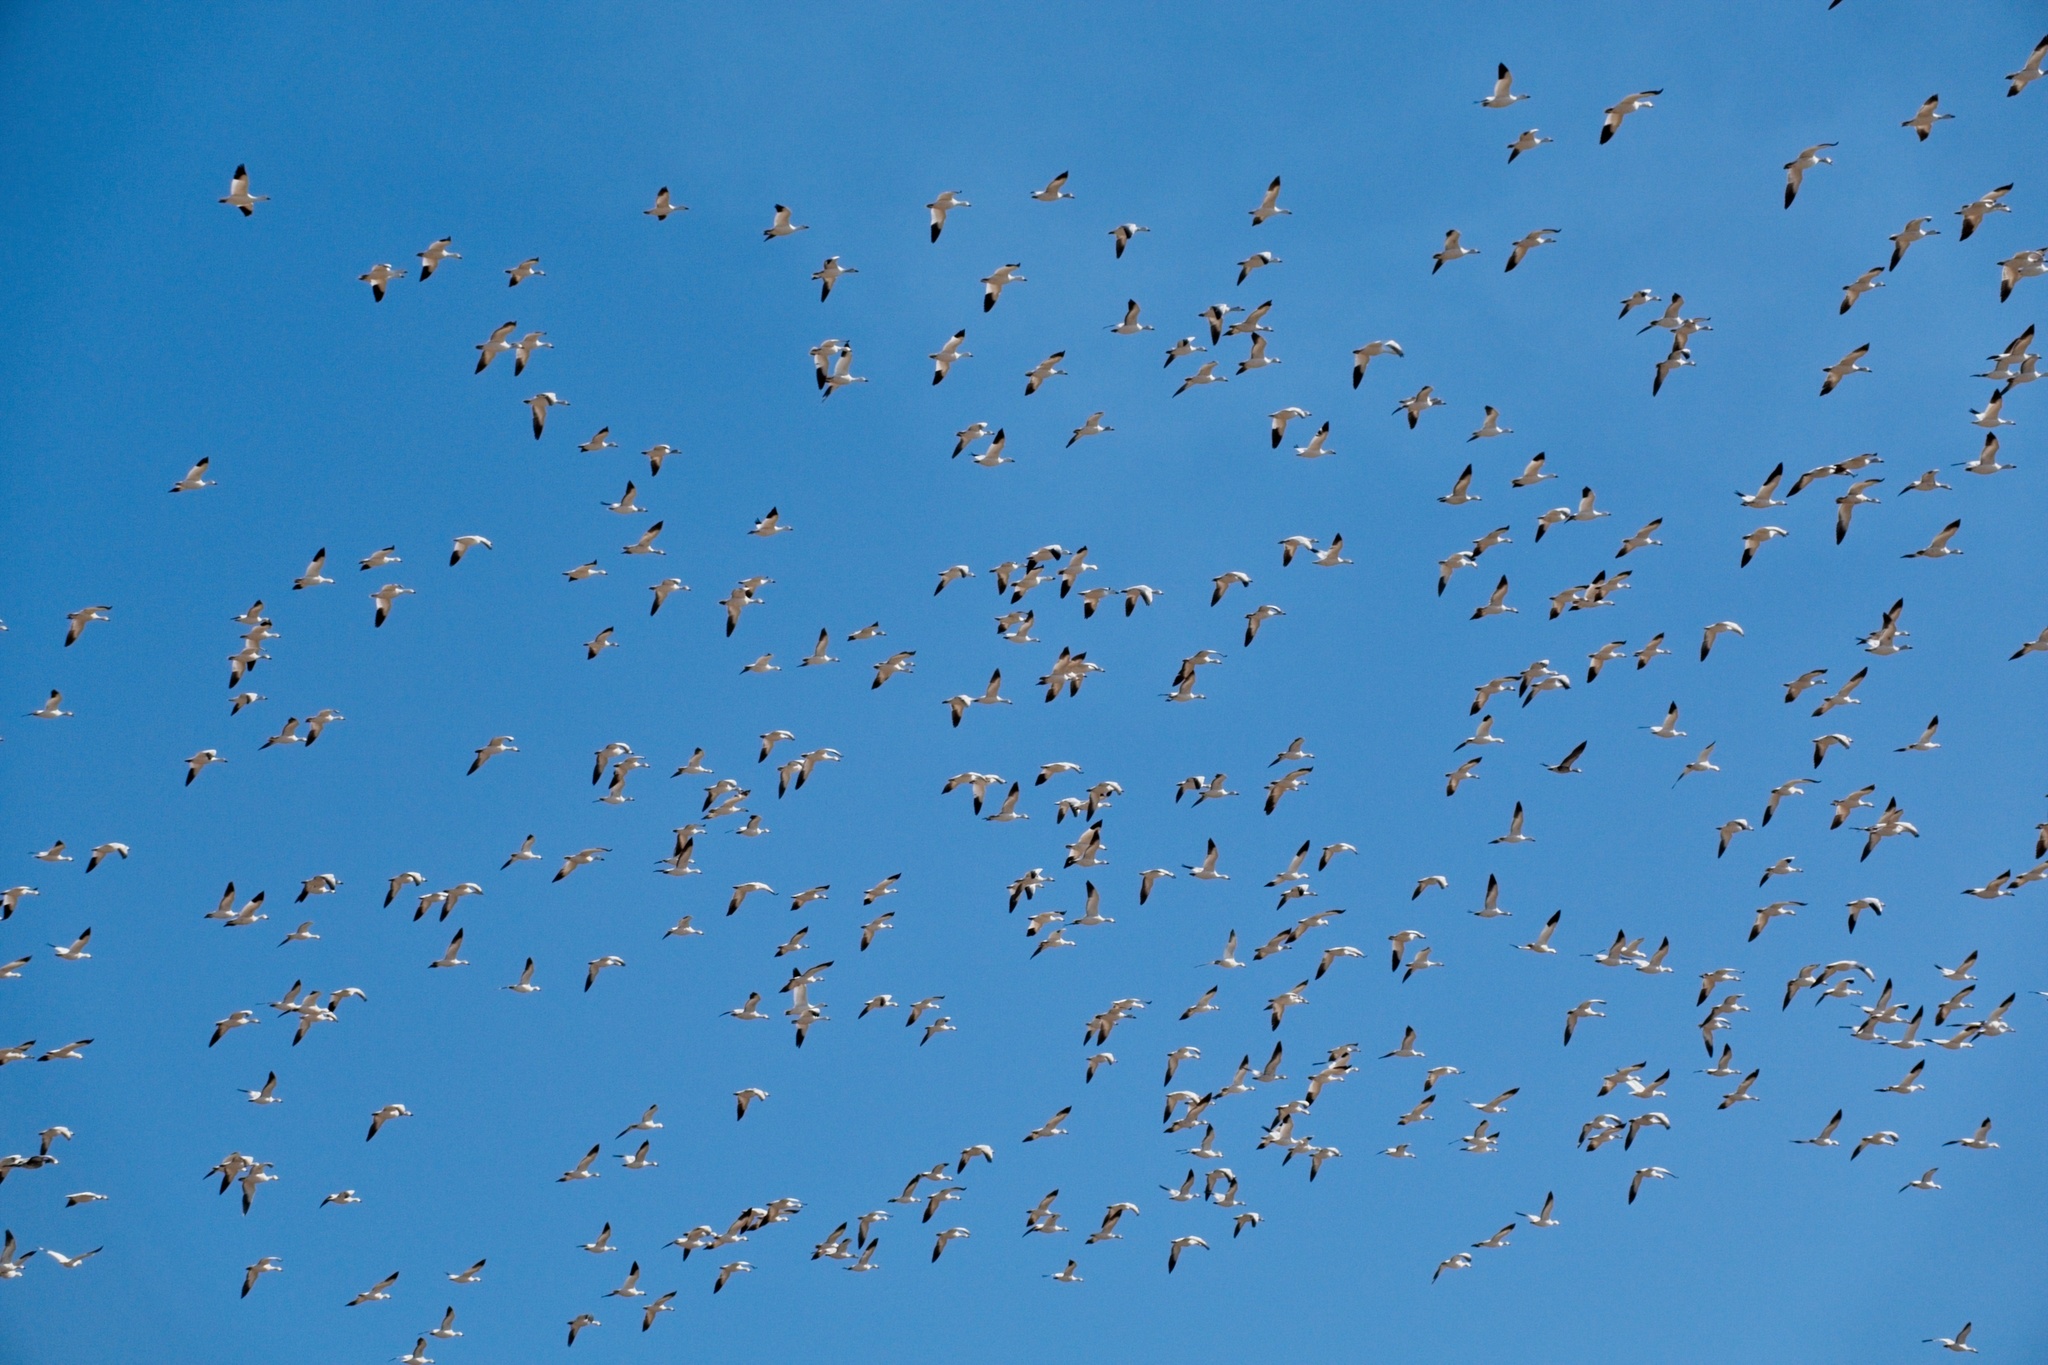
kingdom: Animalia
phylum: Chordata
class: Aves
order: Anseriformes
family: Anatidae
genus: Anser
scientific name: Anser caerulescens
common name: Snow goose
